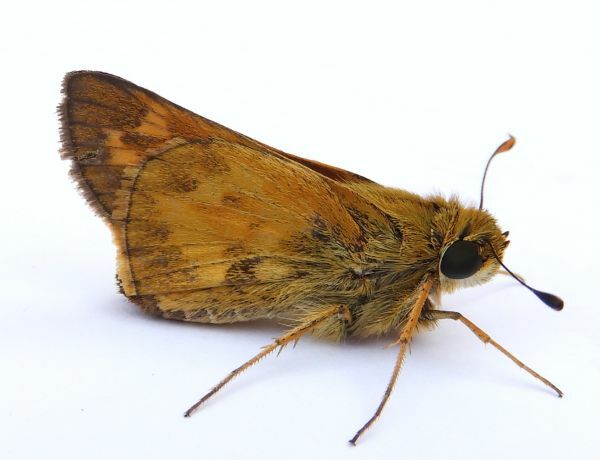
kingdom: Animalia
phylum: Arthropoda
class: Insecta
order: Lepidoptera
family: Hesperiidae
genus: Atalopedes
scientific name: Atalopedes
